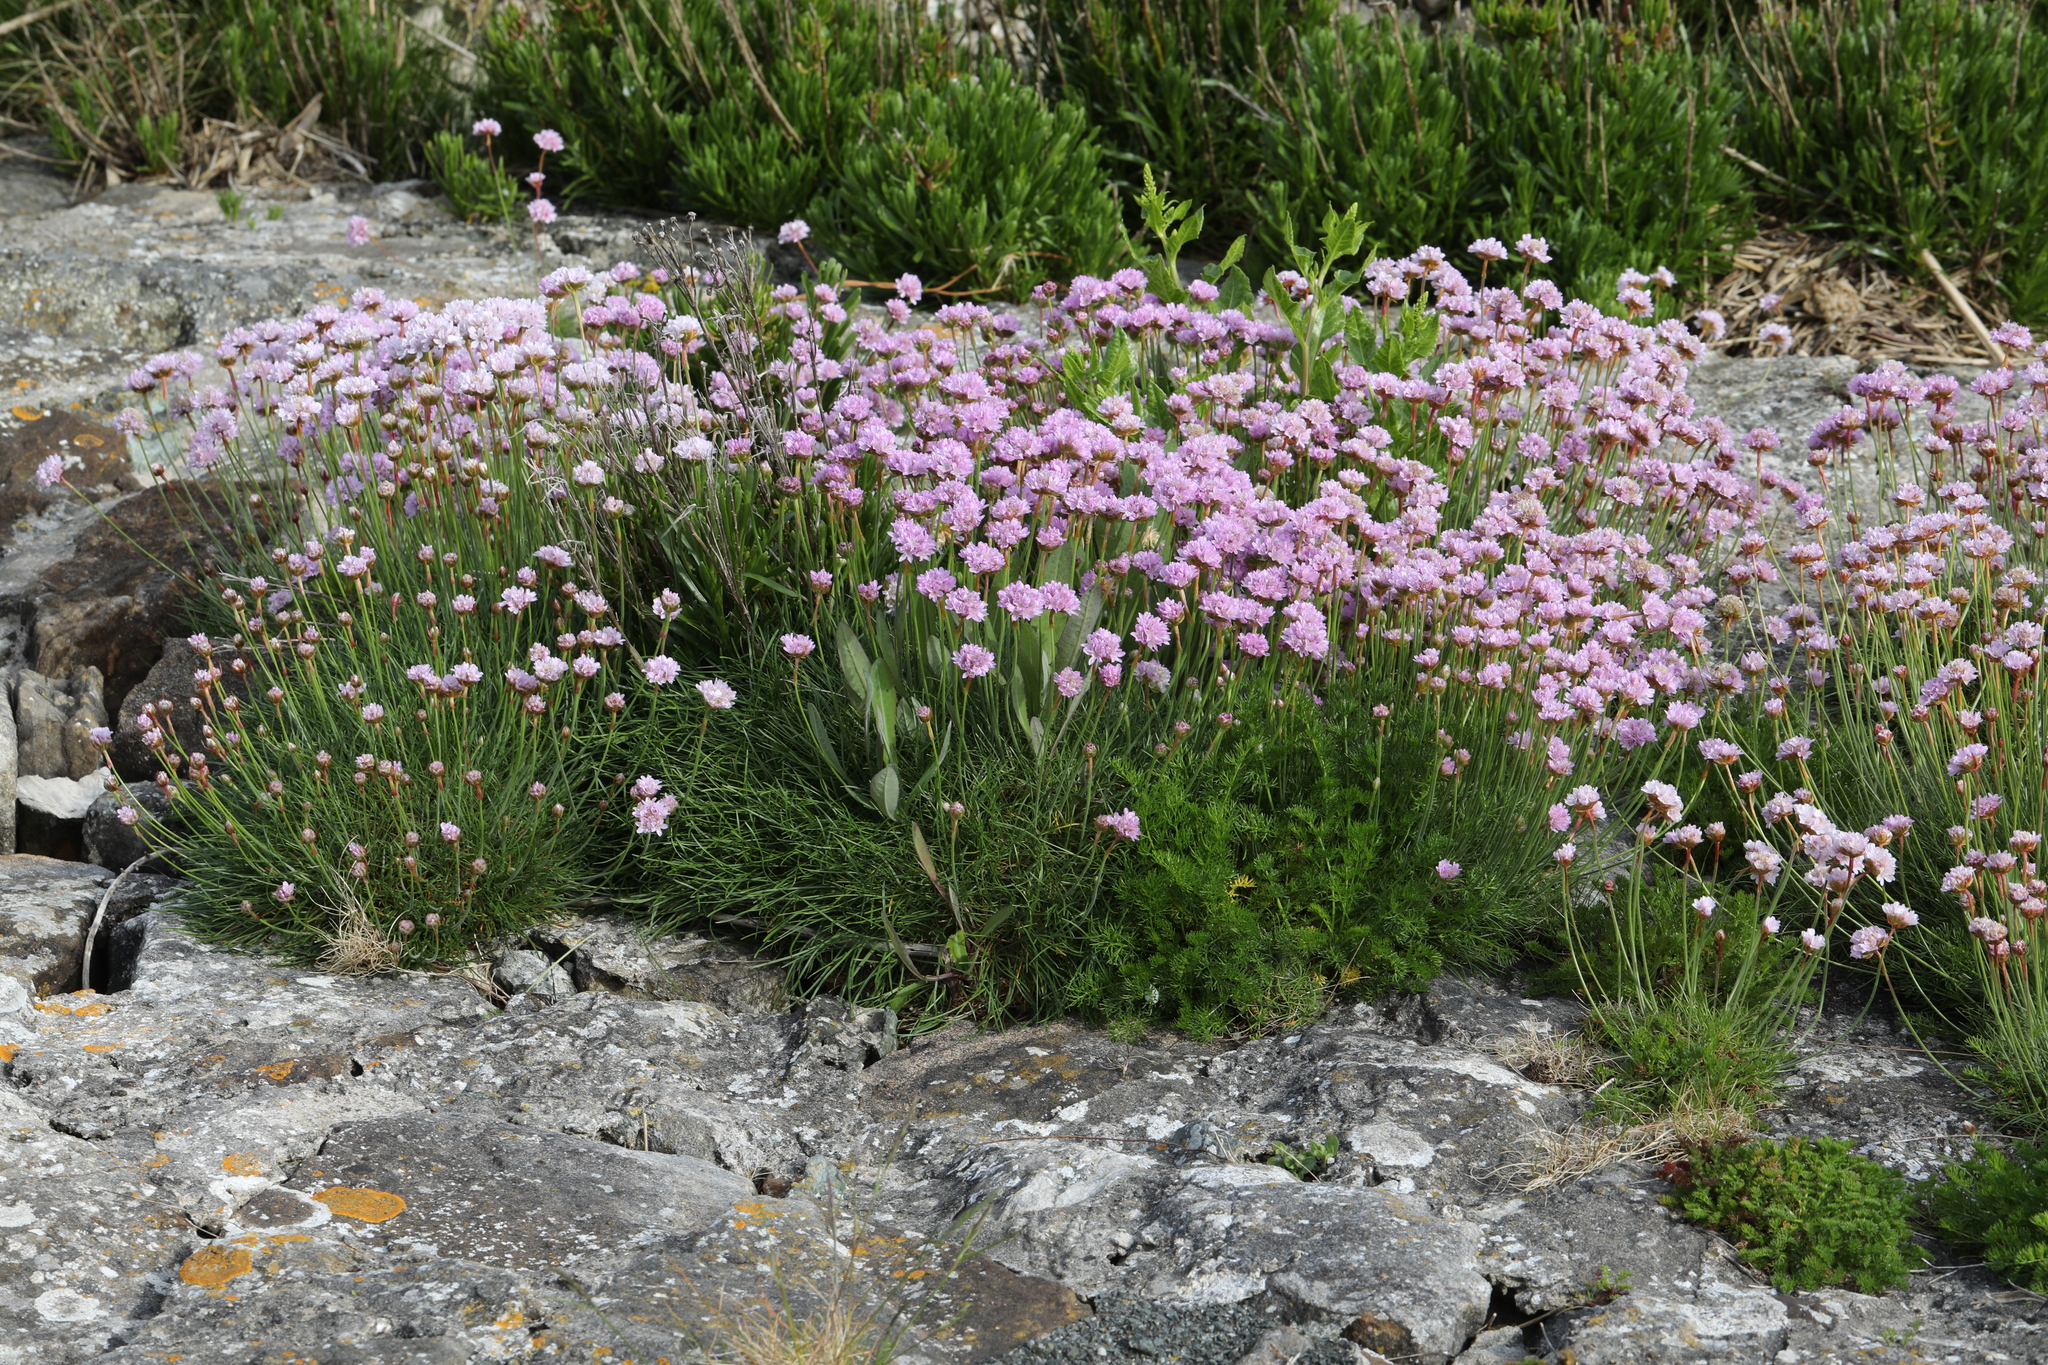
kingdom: Plantae
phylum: Tracheophyta
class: Magnoliopsida
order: Caryophyllales
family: Plumbaginaceae
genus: Armeria
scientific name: Armeria maritima
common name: Thrift
